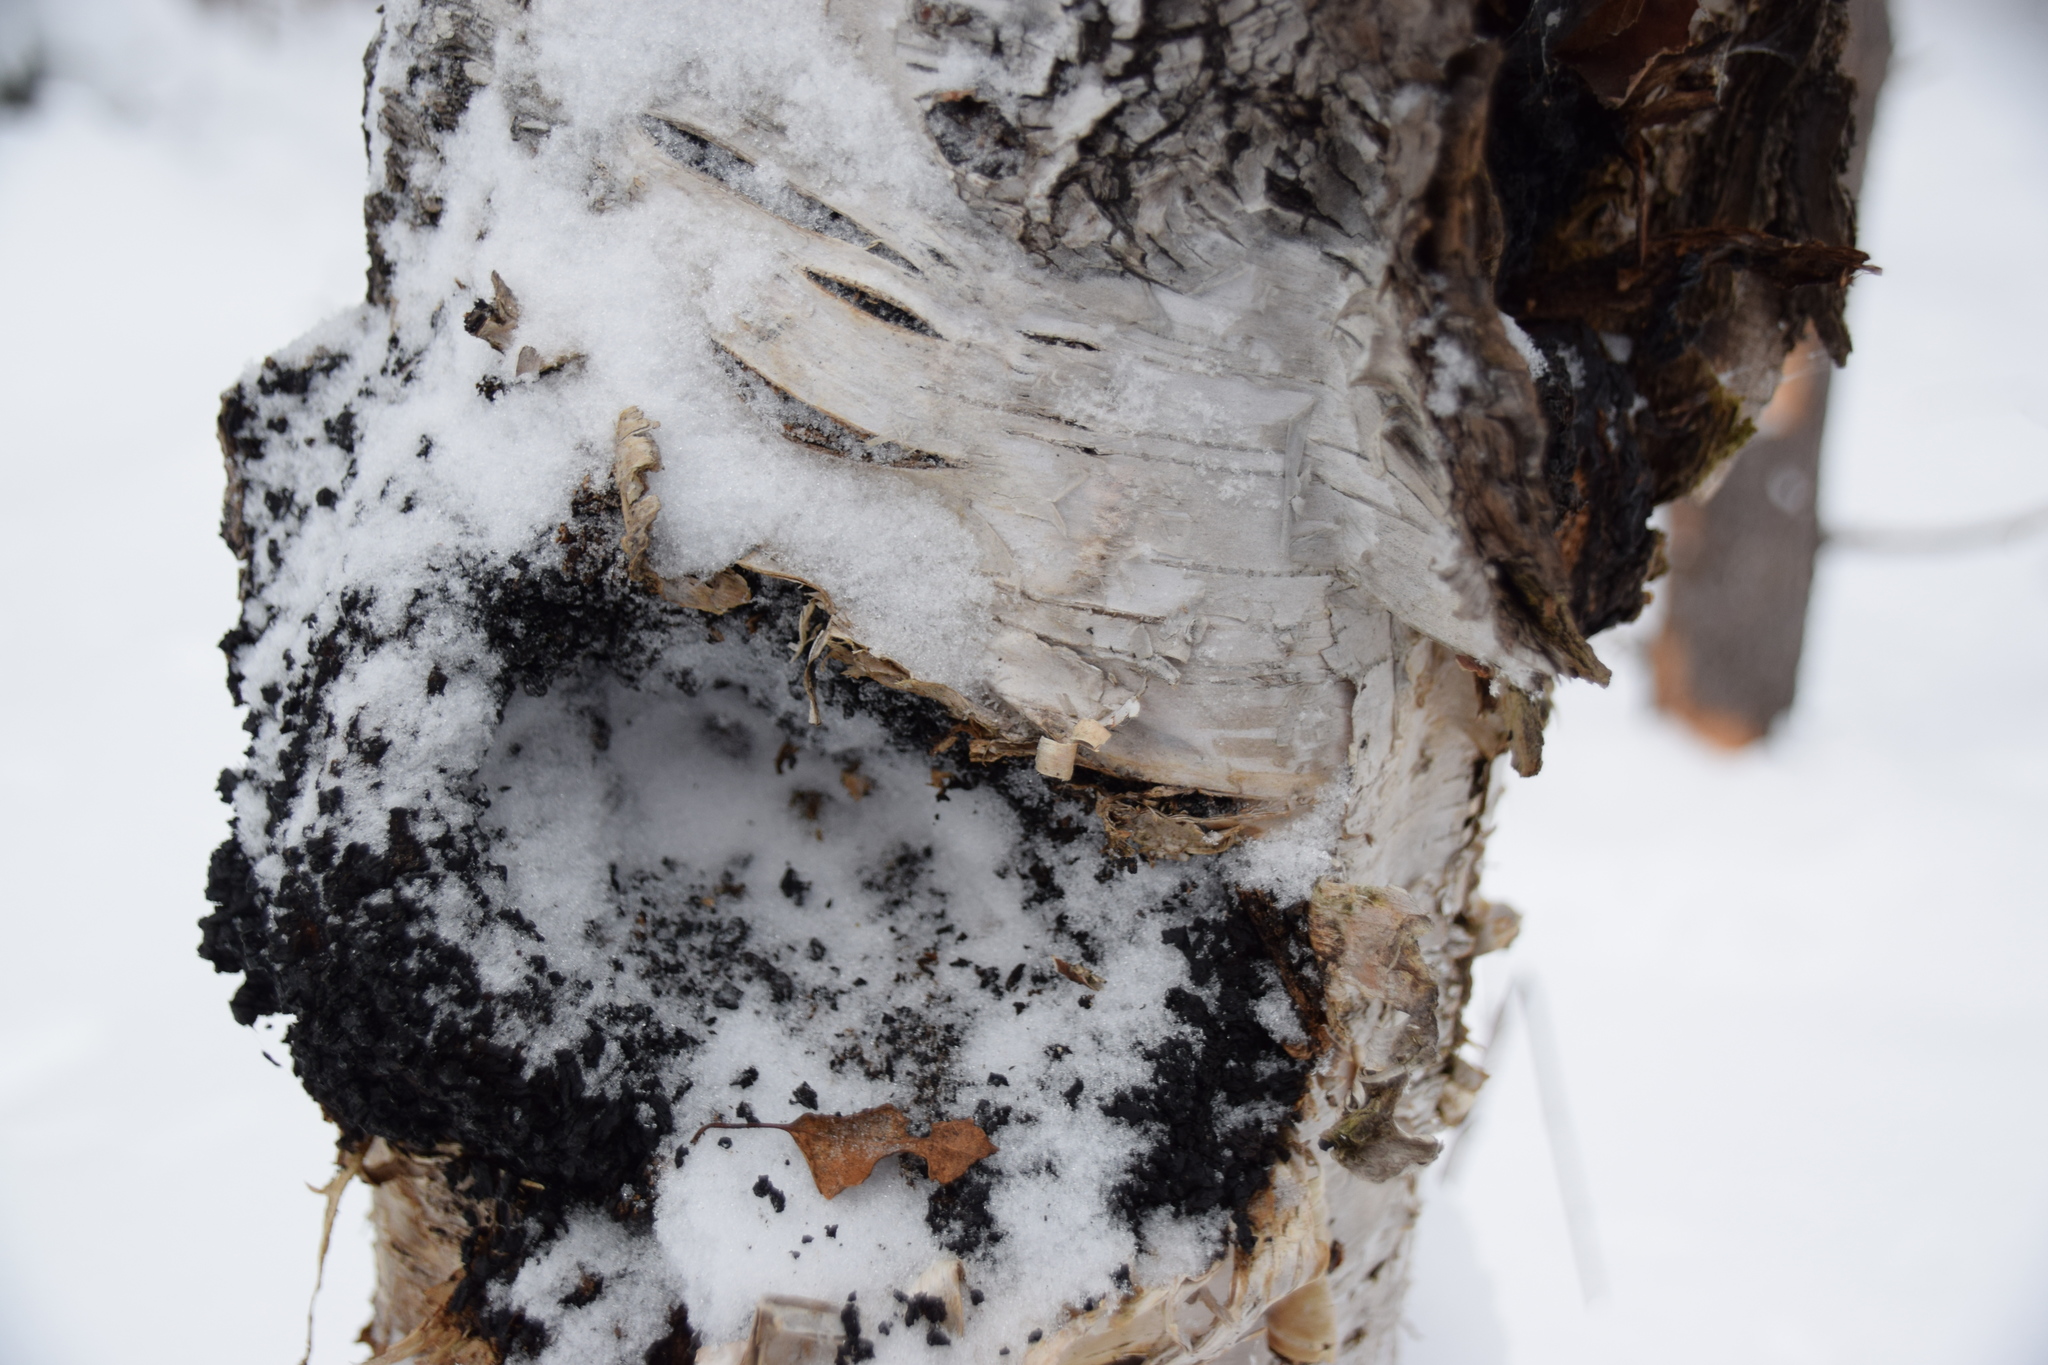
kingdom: Fungi
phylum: Basidiomycota
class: Agaricomycetes
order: Hymenochaetales
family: Hymenochaetaceae
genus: Inonotus
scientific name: Inonotus obliquus
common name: Chaga
